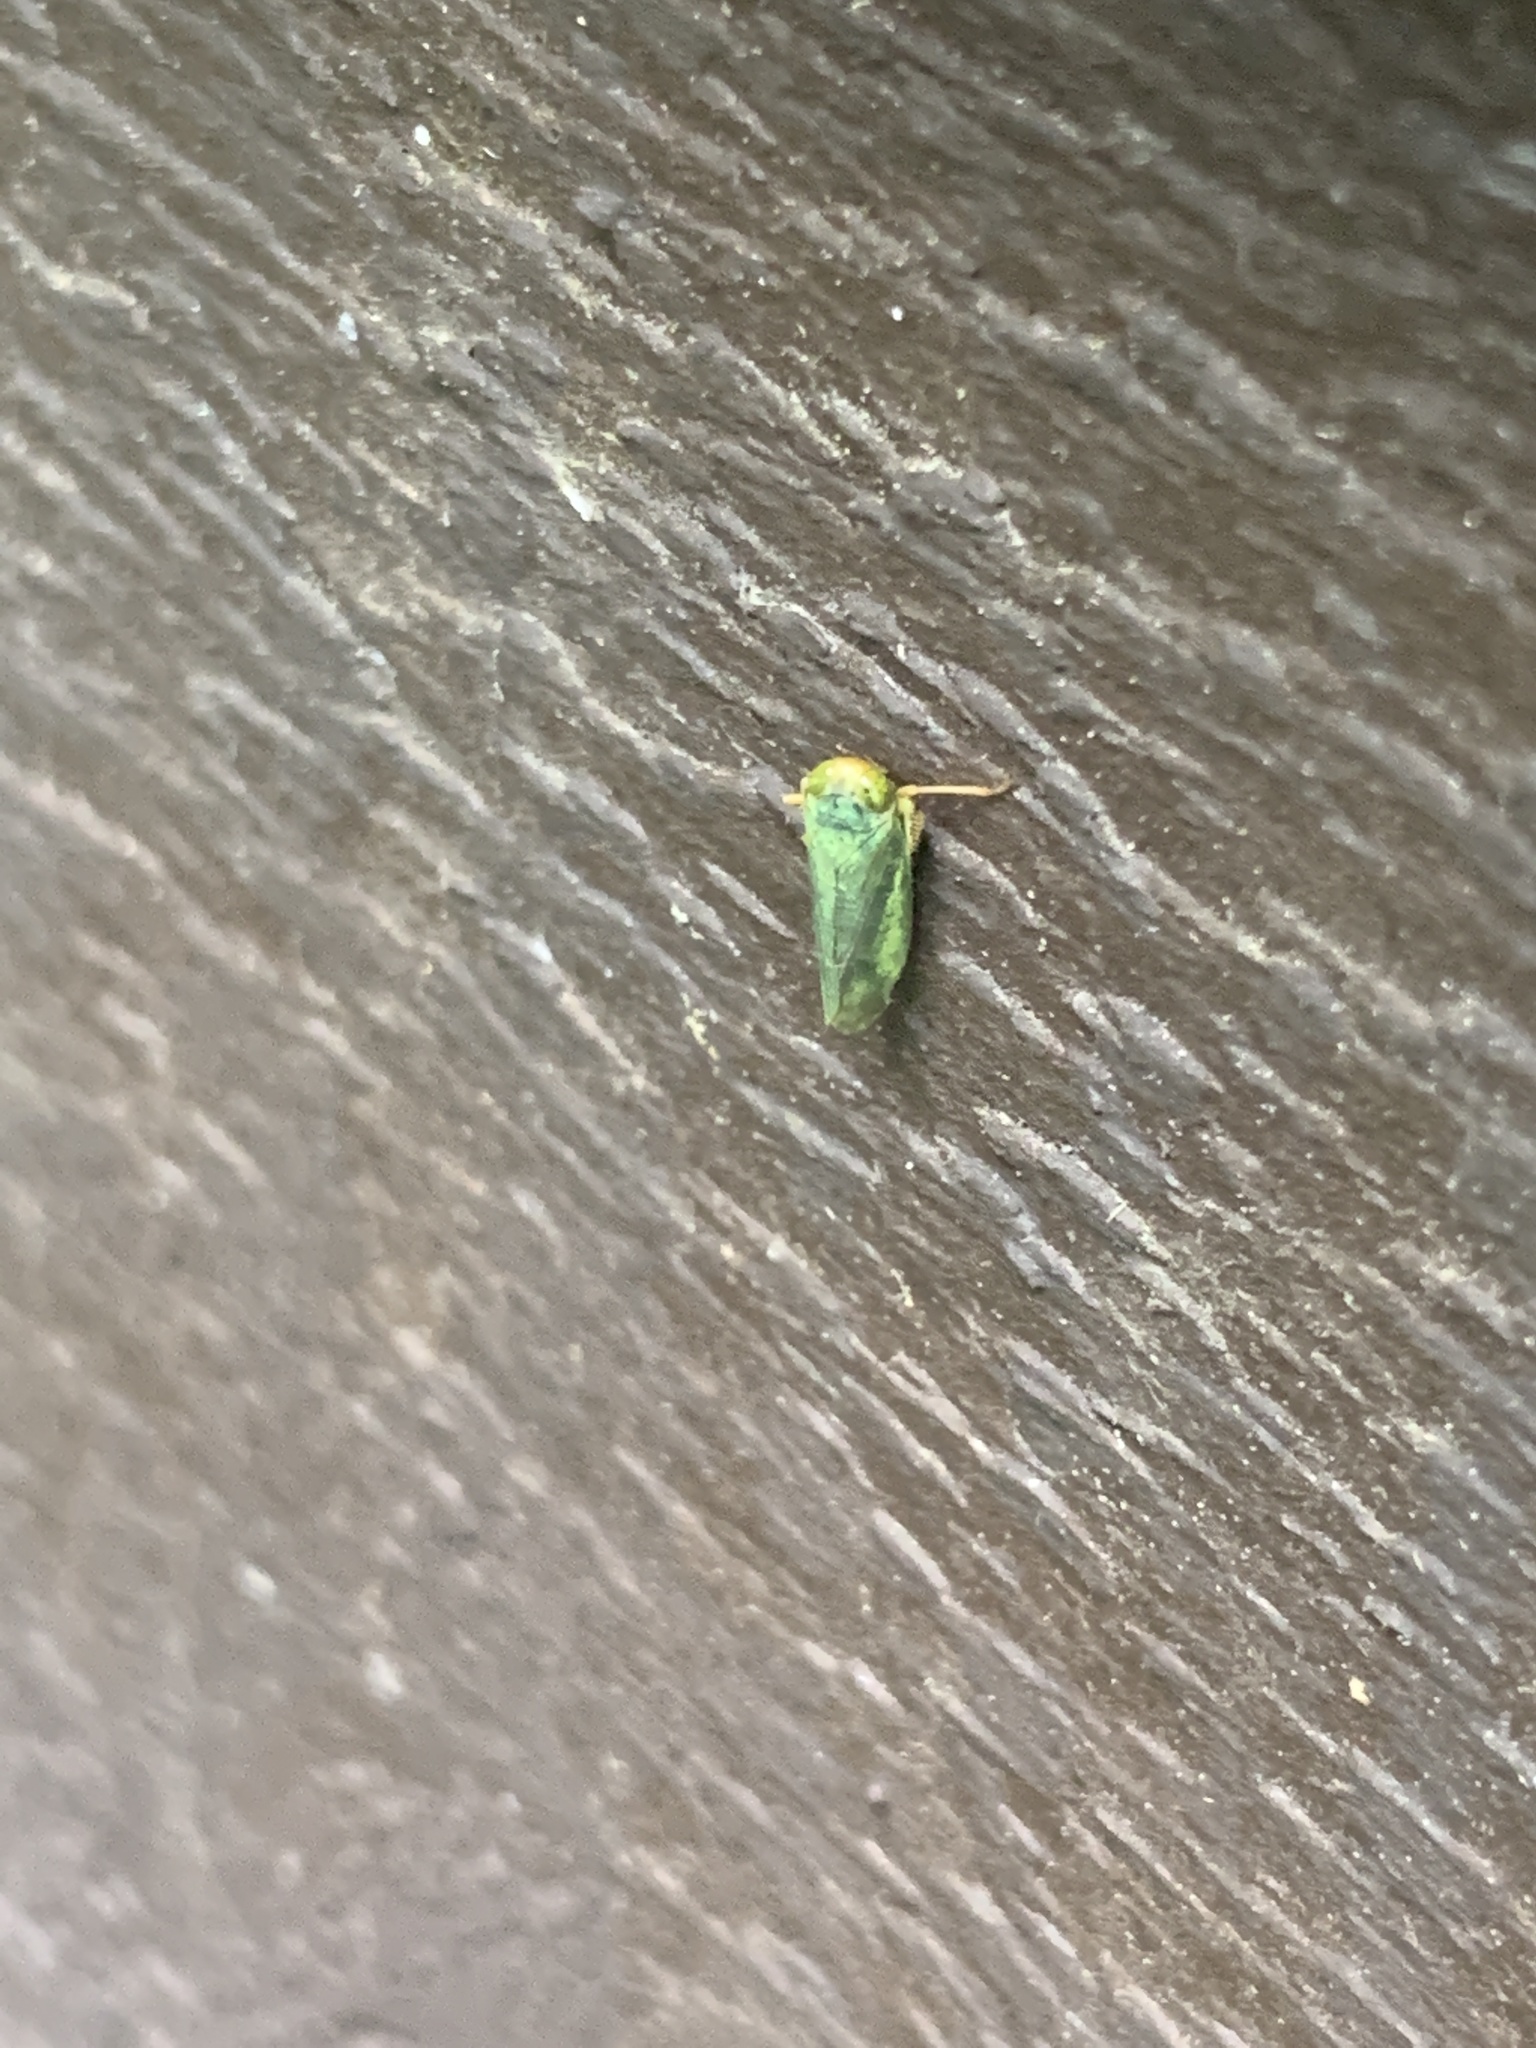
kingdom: Animalia
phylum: Arthropoda
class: Insecta
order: Hemiptera
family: Cicadellidae
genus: Jikradia
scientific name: Jikradia olitoria
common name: Coppery leafhopper
